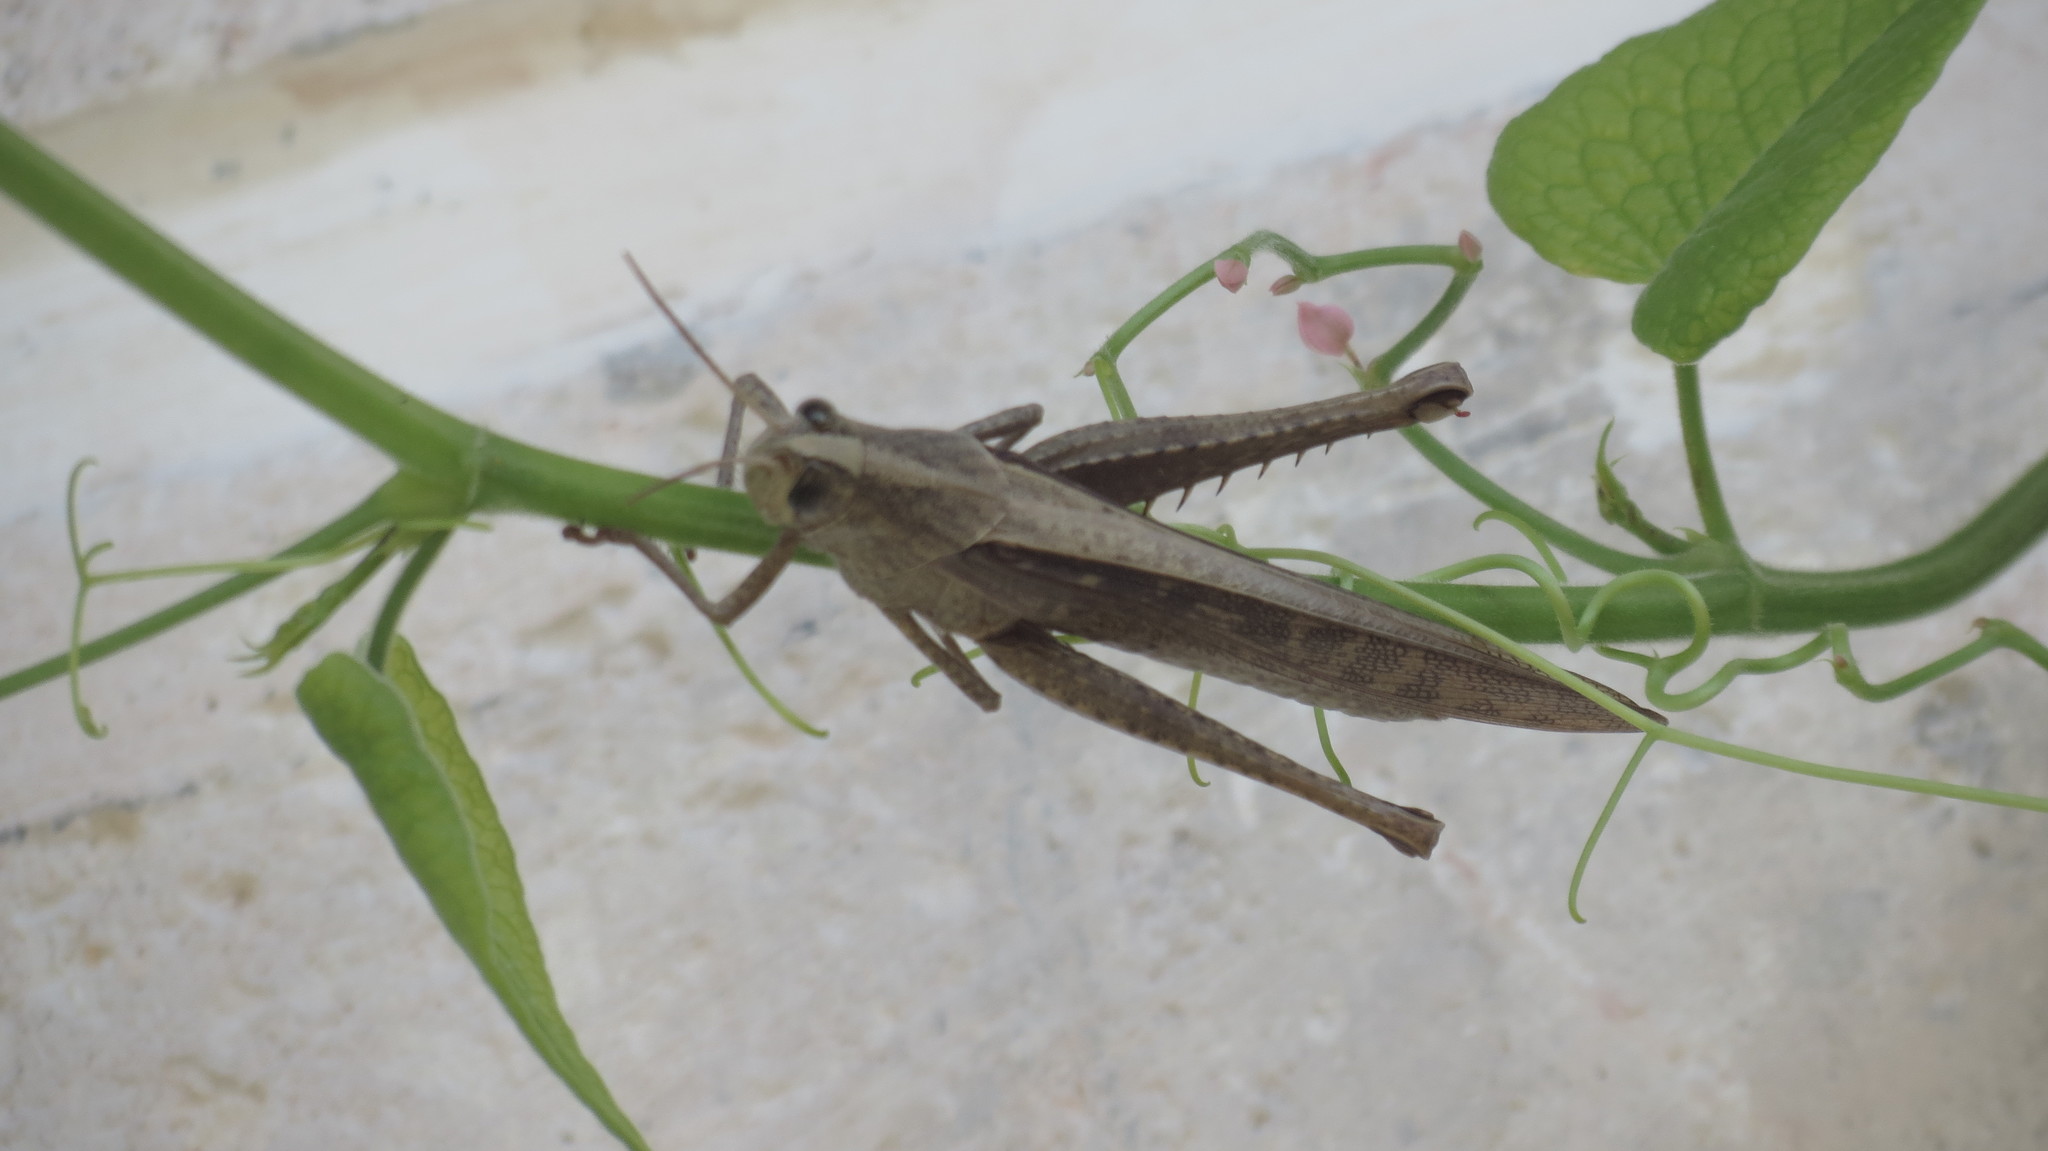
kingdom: Animalia
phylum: Arthropoda
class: Insecta
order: Orthoptera
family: Acrididae
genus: Schistocerca
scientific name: Schistocerca nitens
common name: Vagrant grasshopper
